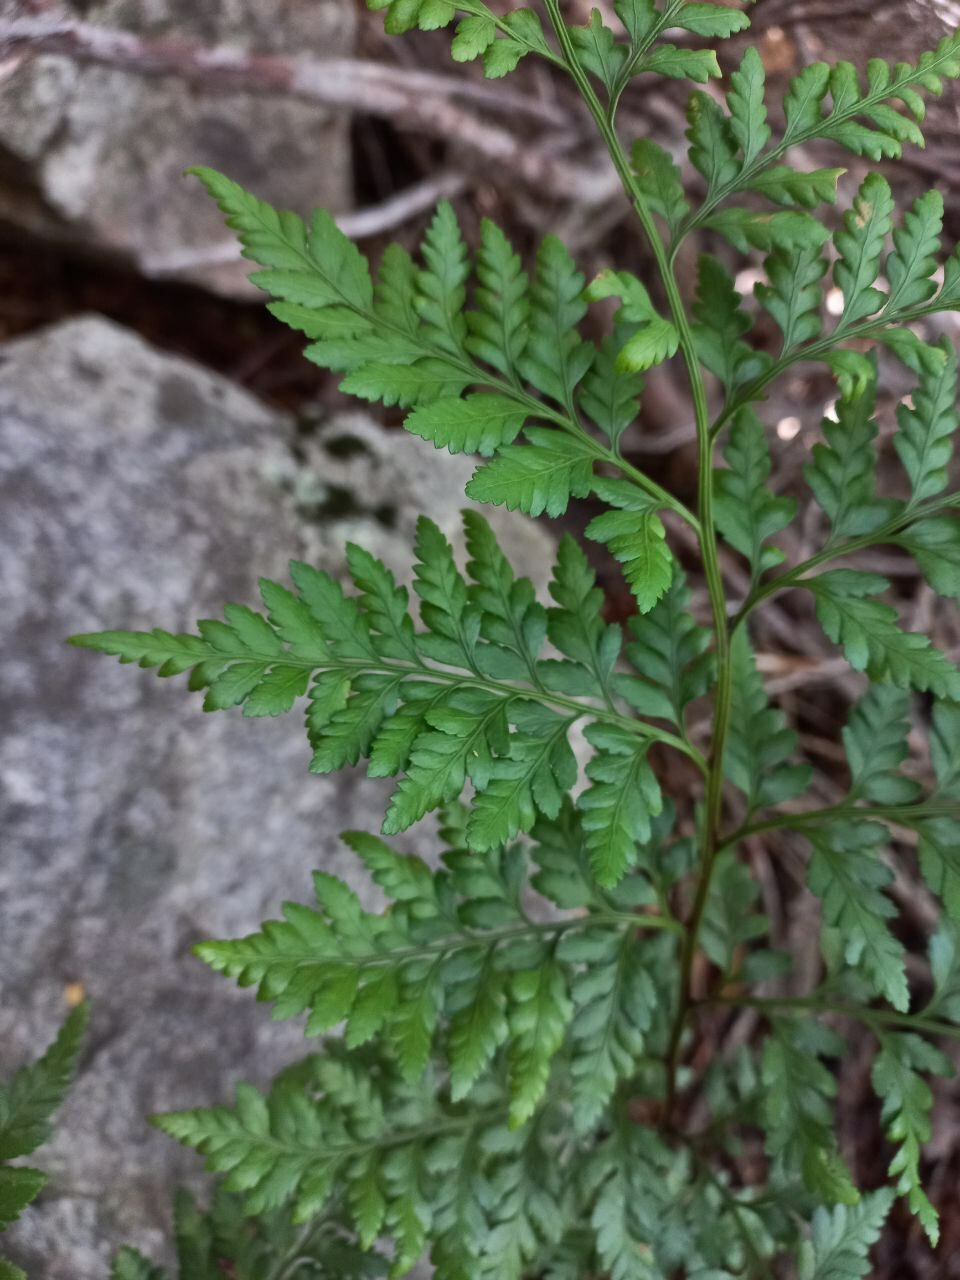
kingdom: Plantae
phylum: Tracheophyta
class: Polypodiopsida
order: Polypodiales
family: Dryopteridaceae
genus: Rumohra
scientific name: Rumohra adiantiformis
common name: Leather fern
